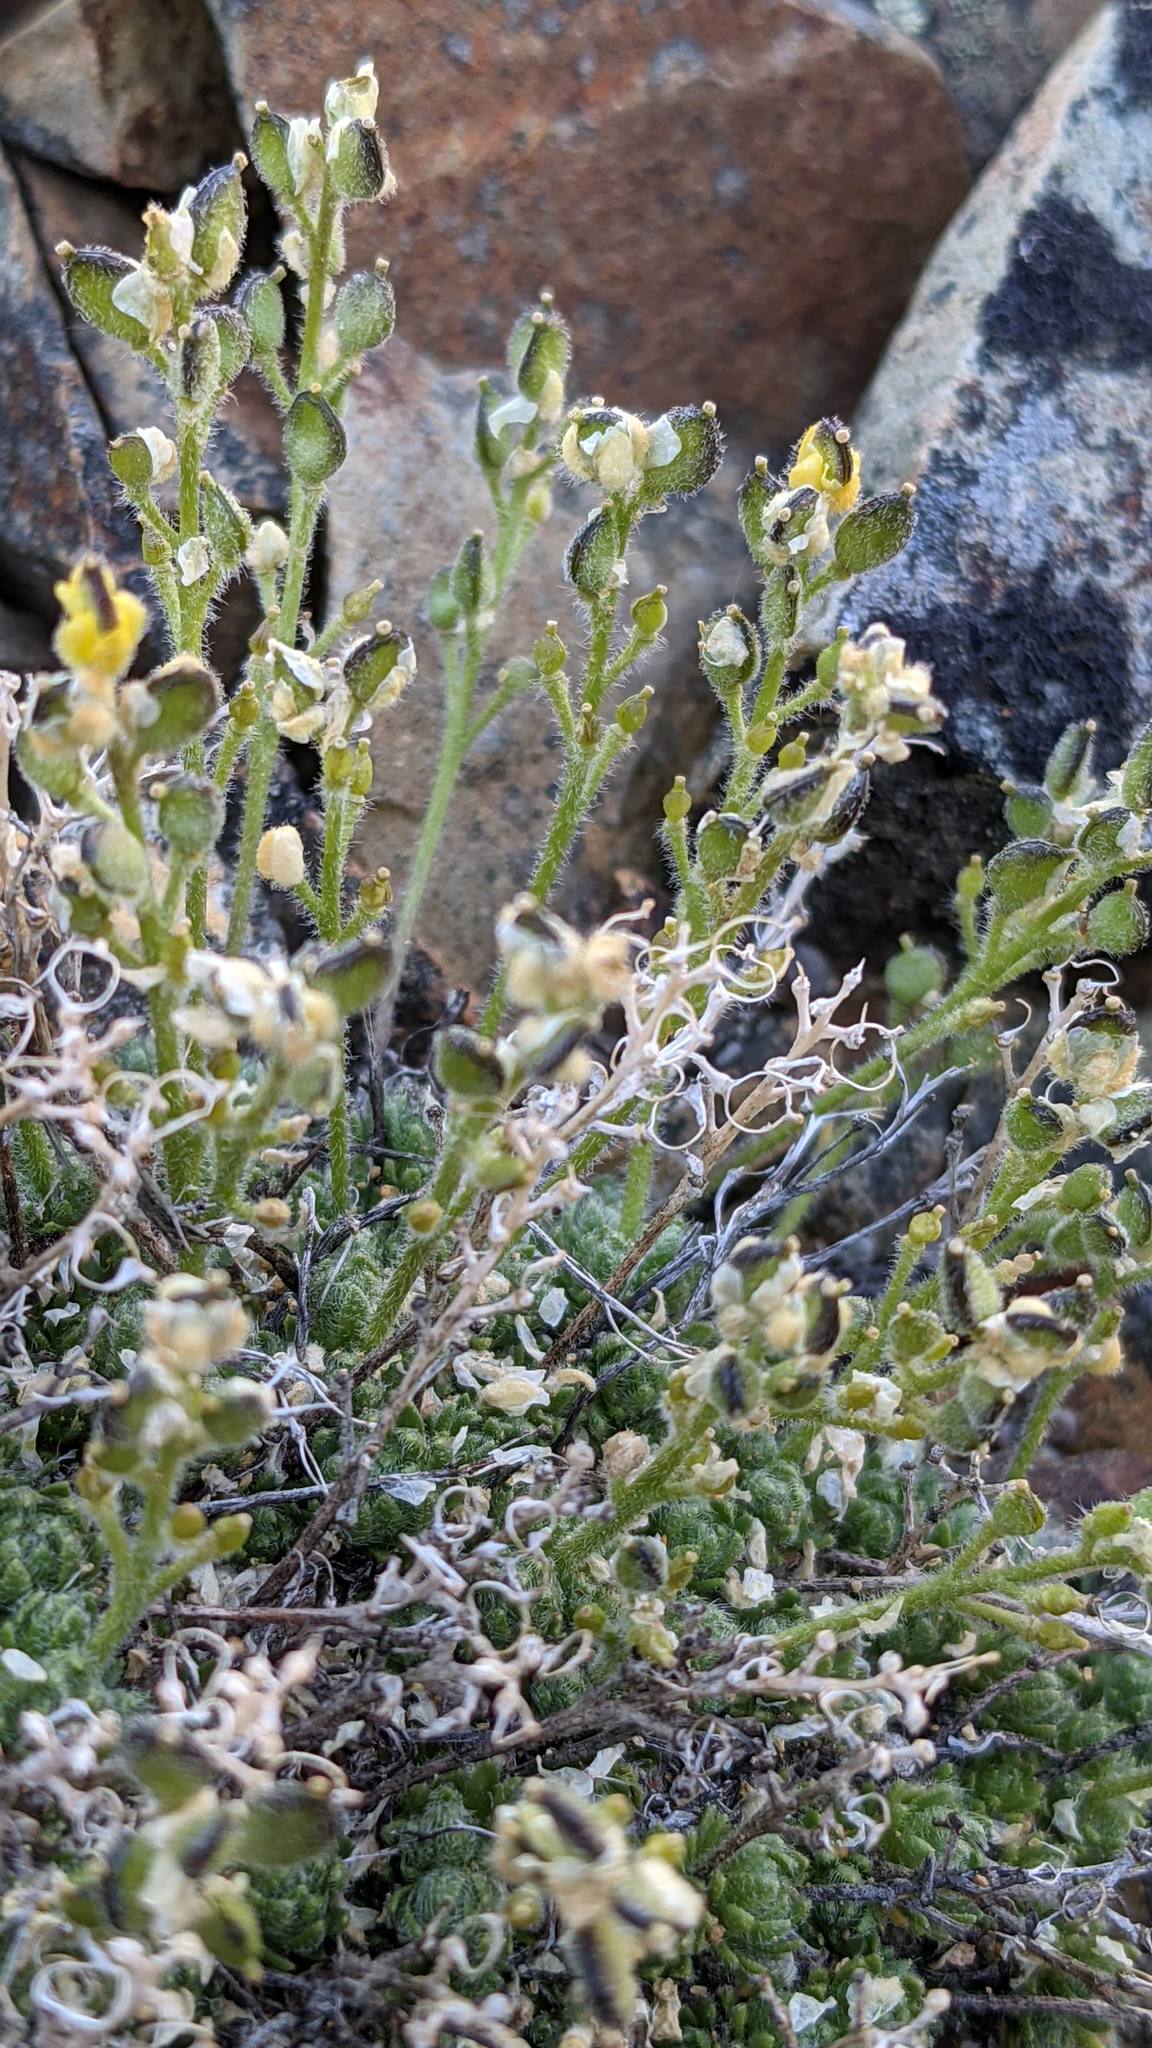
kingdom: Plantae
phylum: Tracheophyta
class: Magnoliopsida
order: Brassicales
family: Brassicaceae
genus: Draba
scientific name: Draba novolympica
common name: Olympic mountains draba
